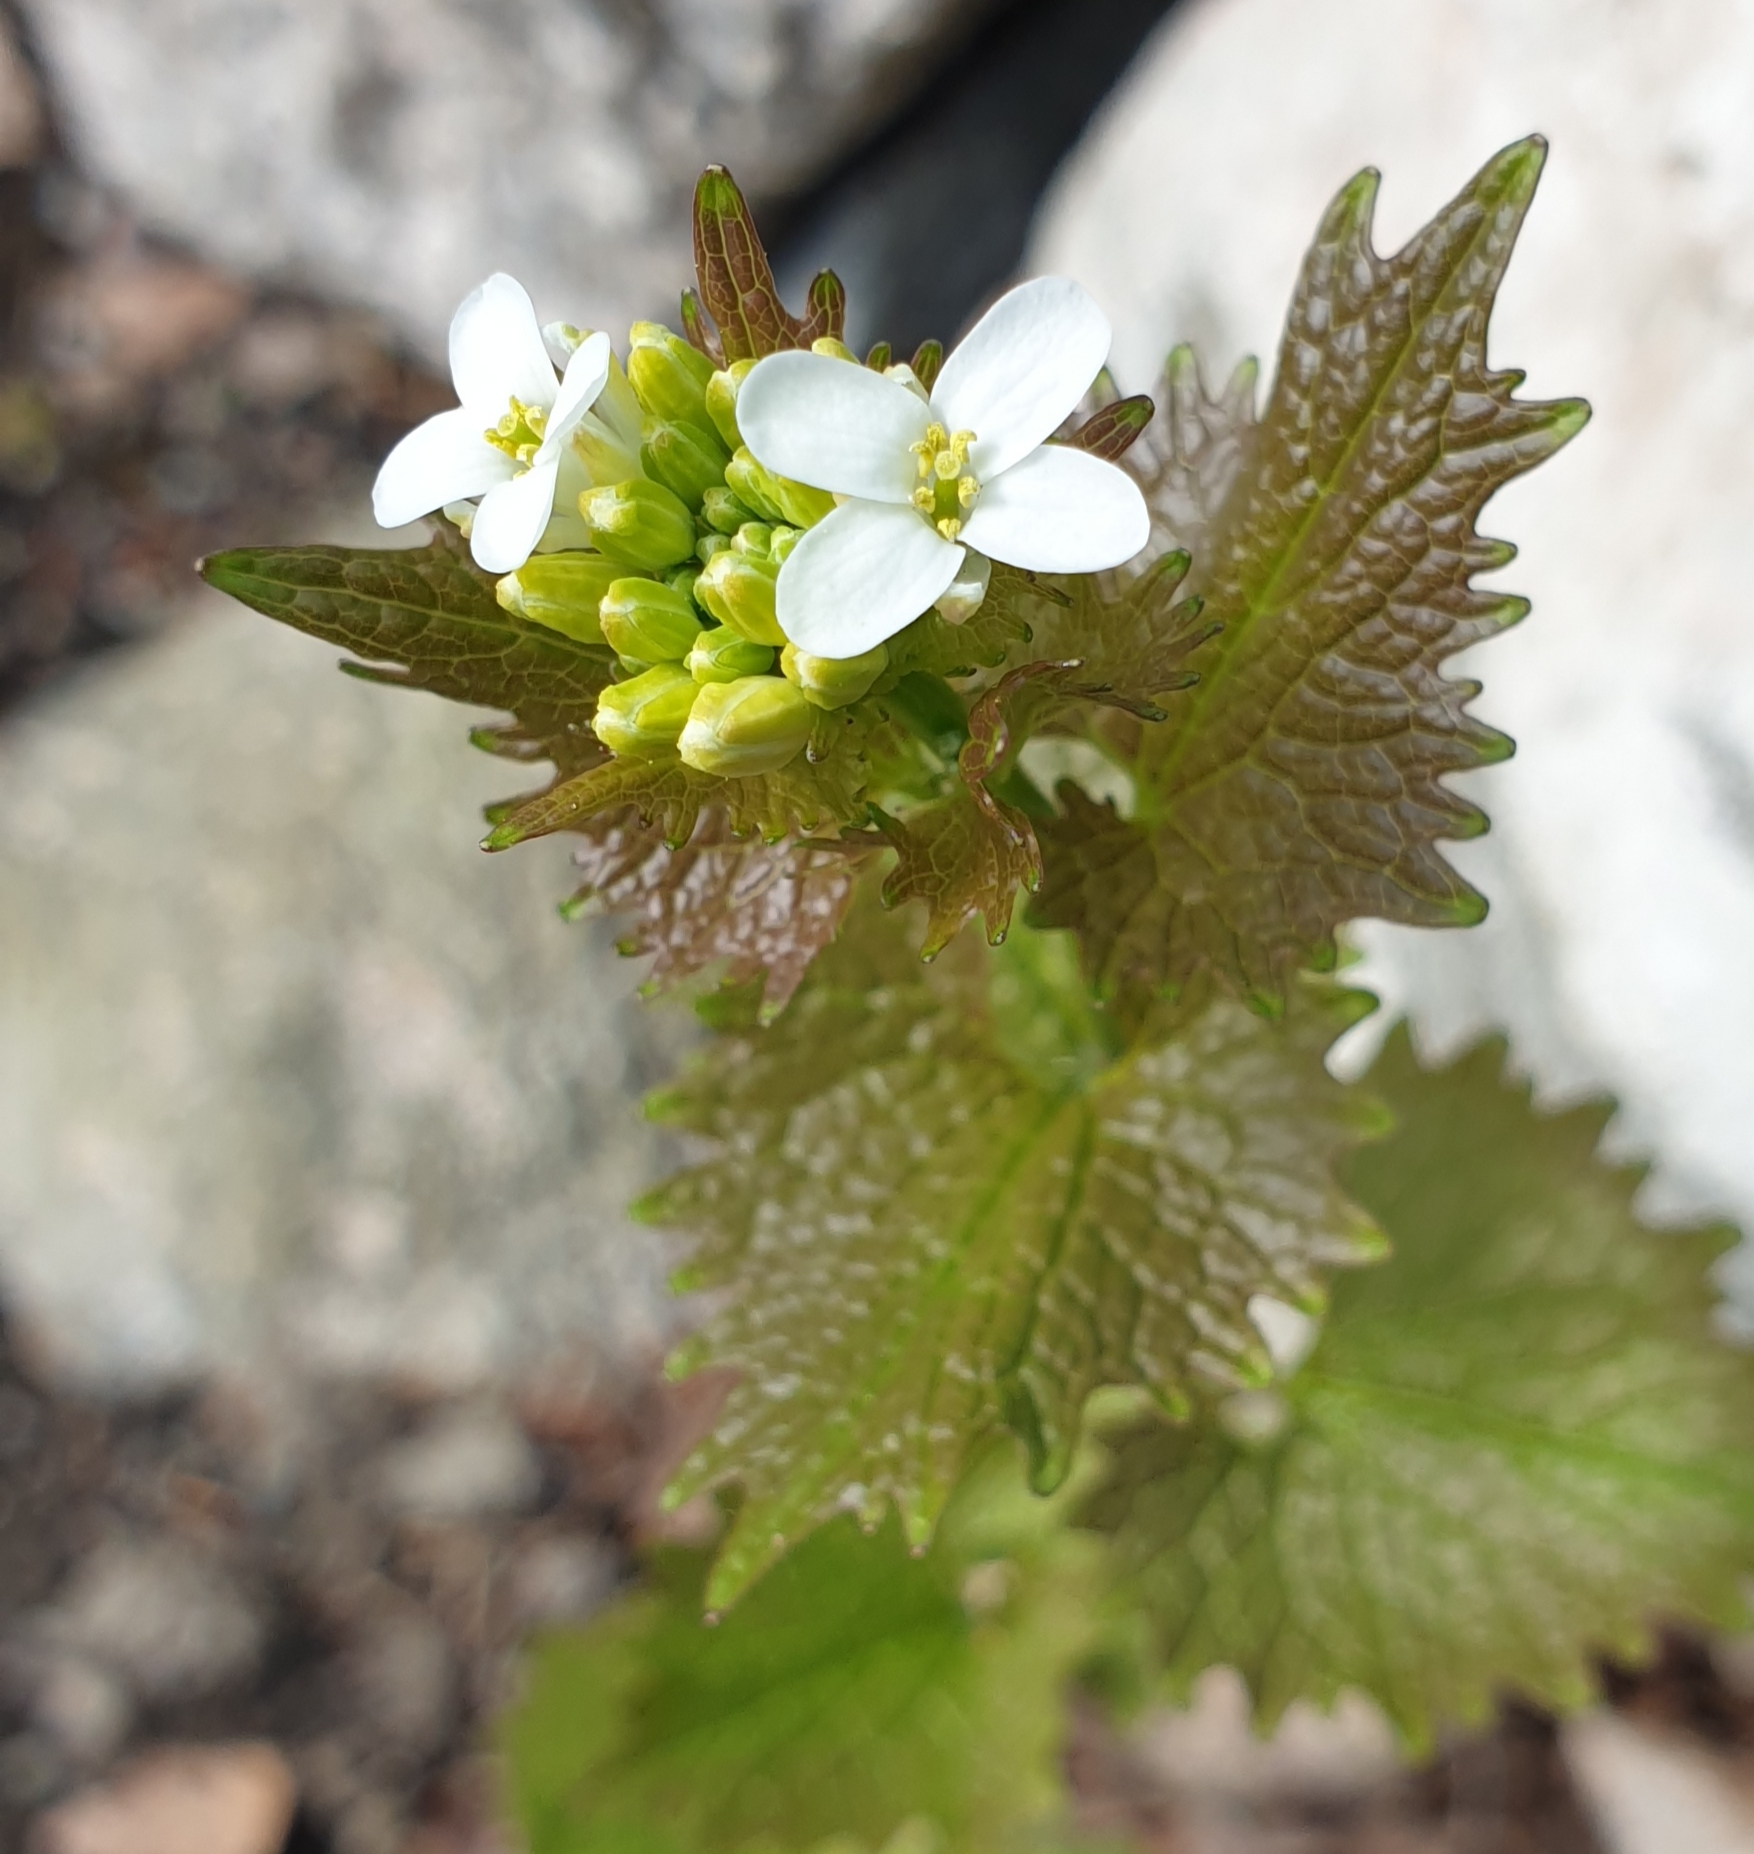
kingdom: Plantae
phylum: Tracheophyta
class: Magnoliopsida
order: Brassicales
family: Brassicaceae
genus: Alliaria
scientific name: Alliaria petiolata
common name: Garlic mustard
